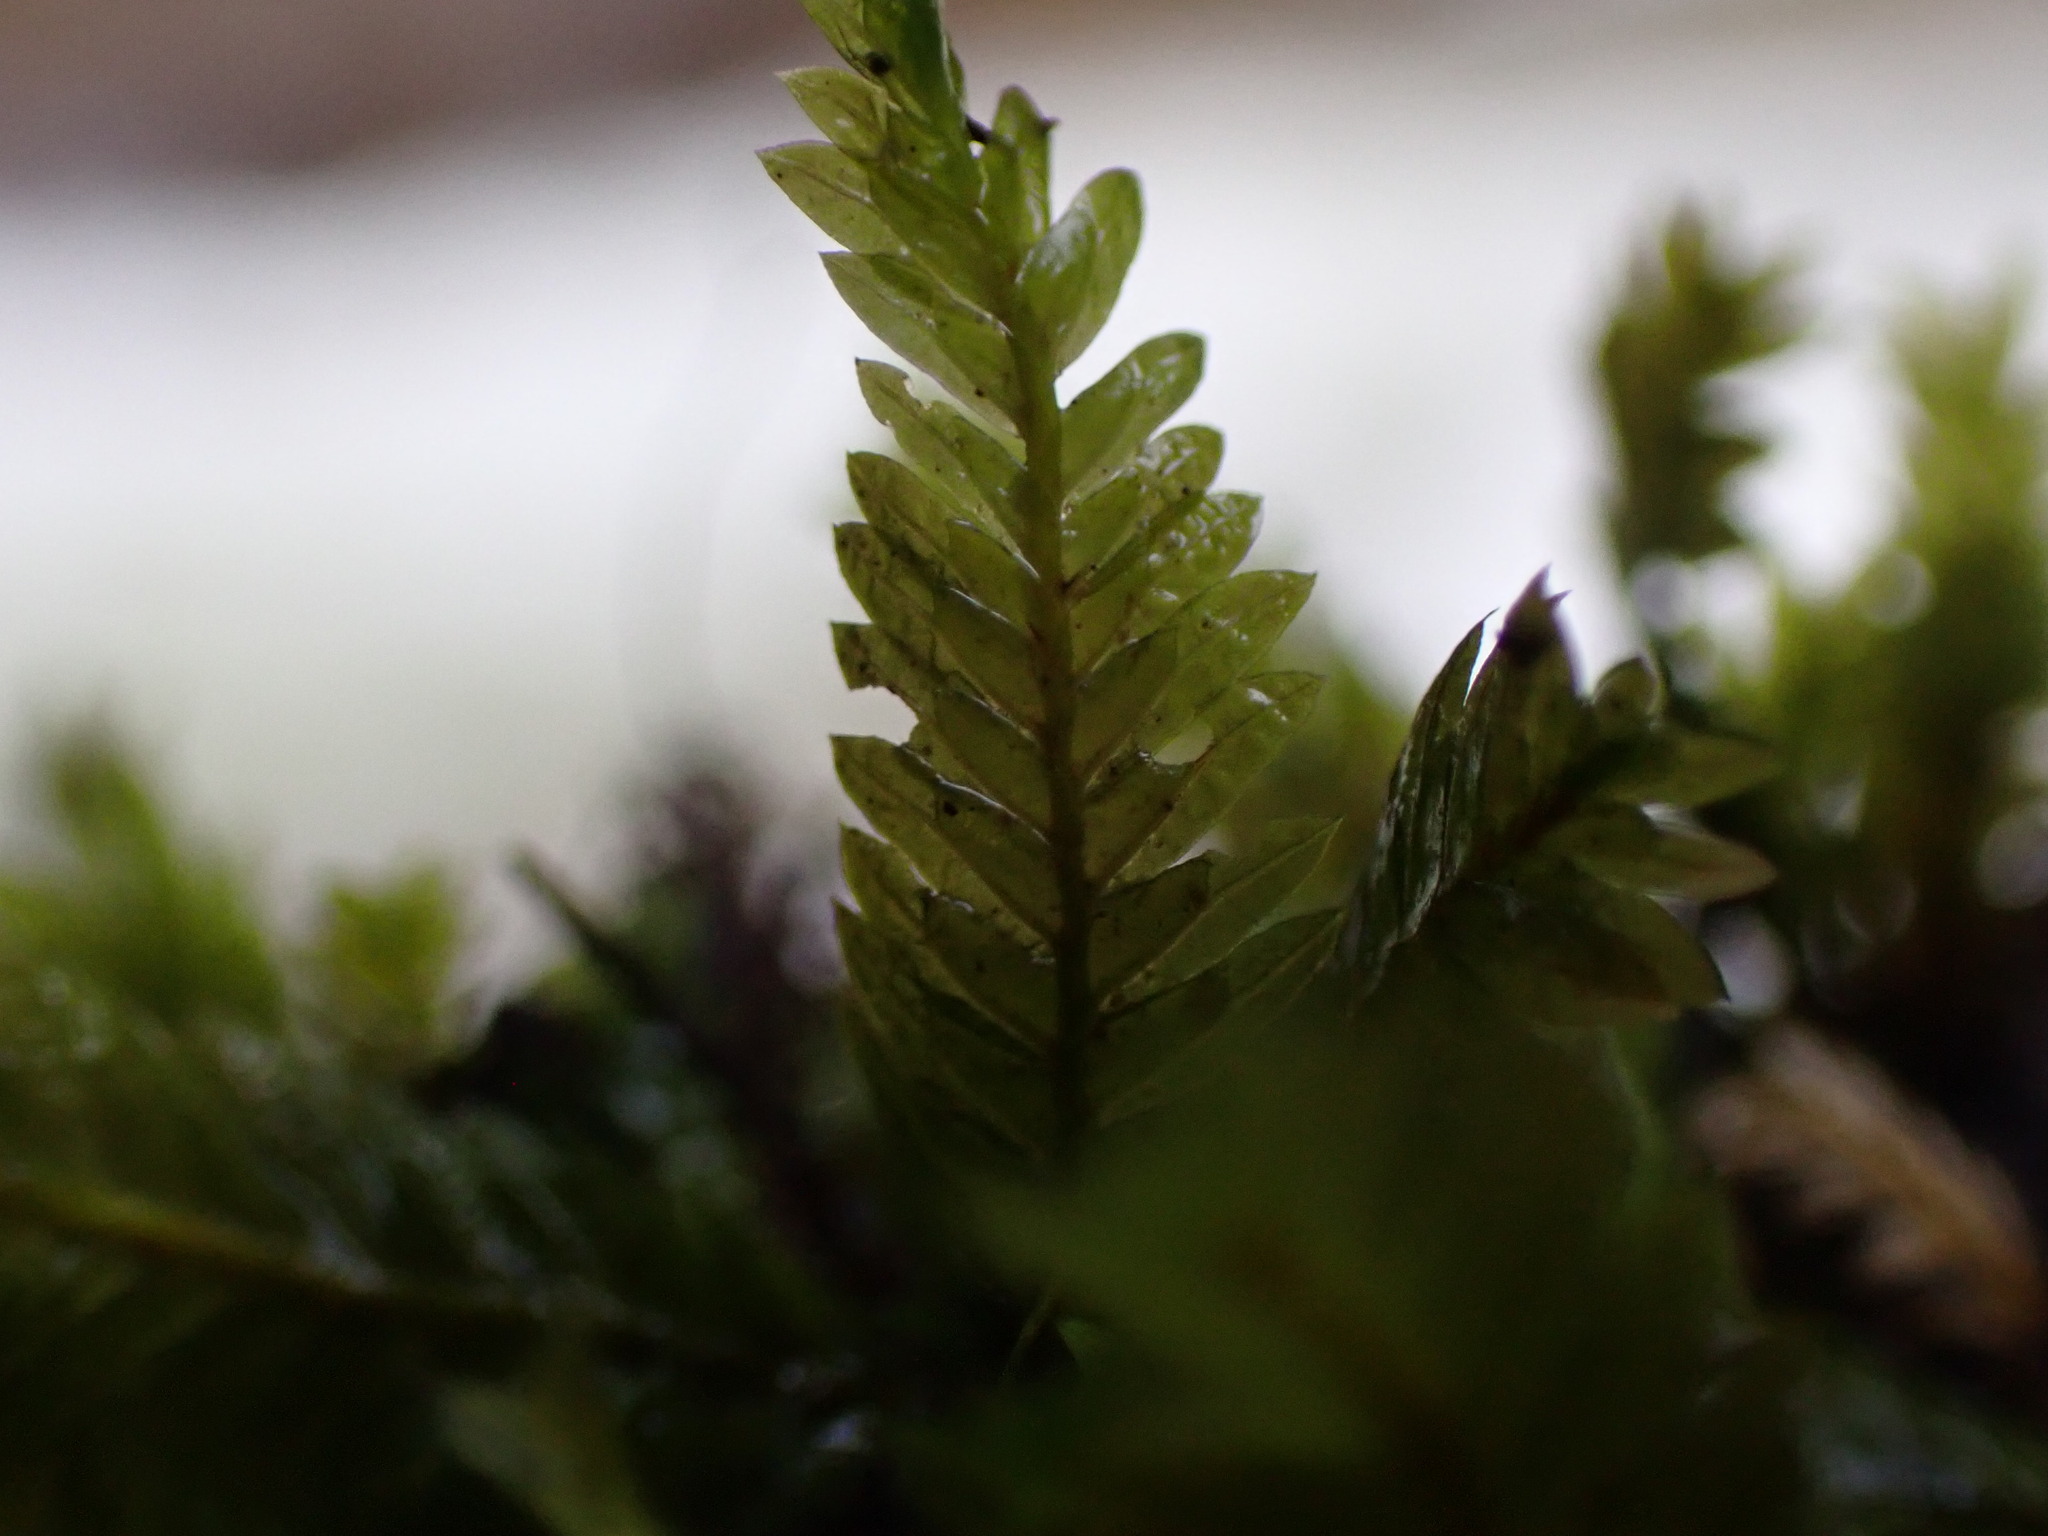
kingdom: Plantae
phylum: Bryophyta
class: Bryopsida
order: Dicranales
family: Fissidentaceae
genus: Fissidens
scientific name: Fissidens adianthoides
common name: Maidenhair pocket moss
